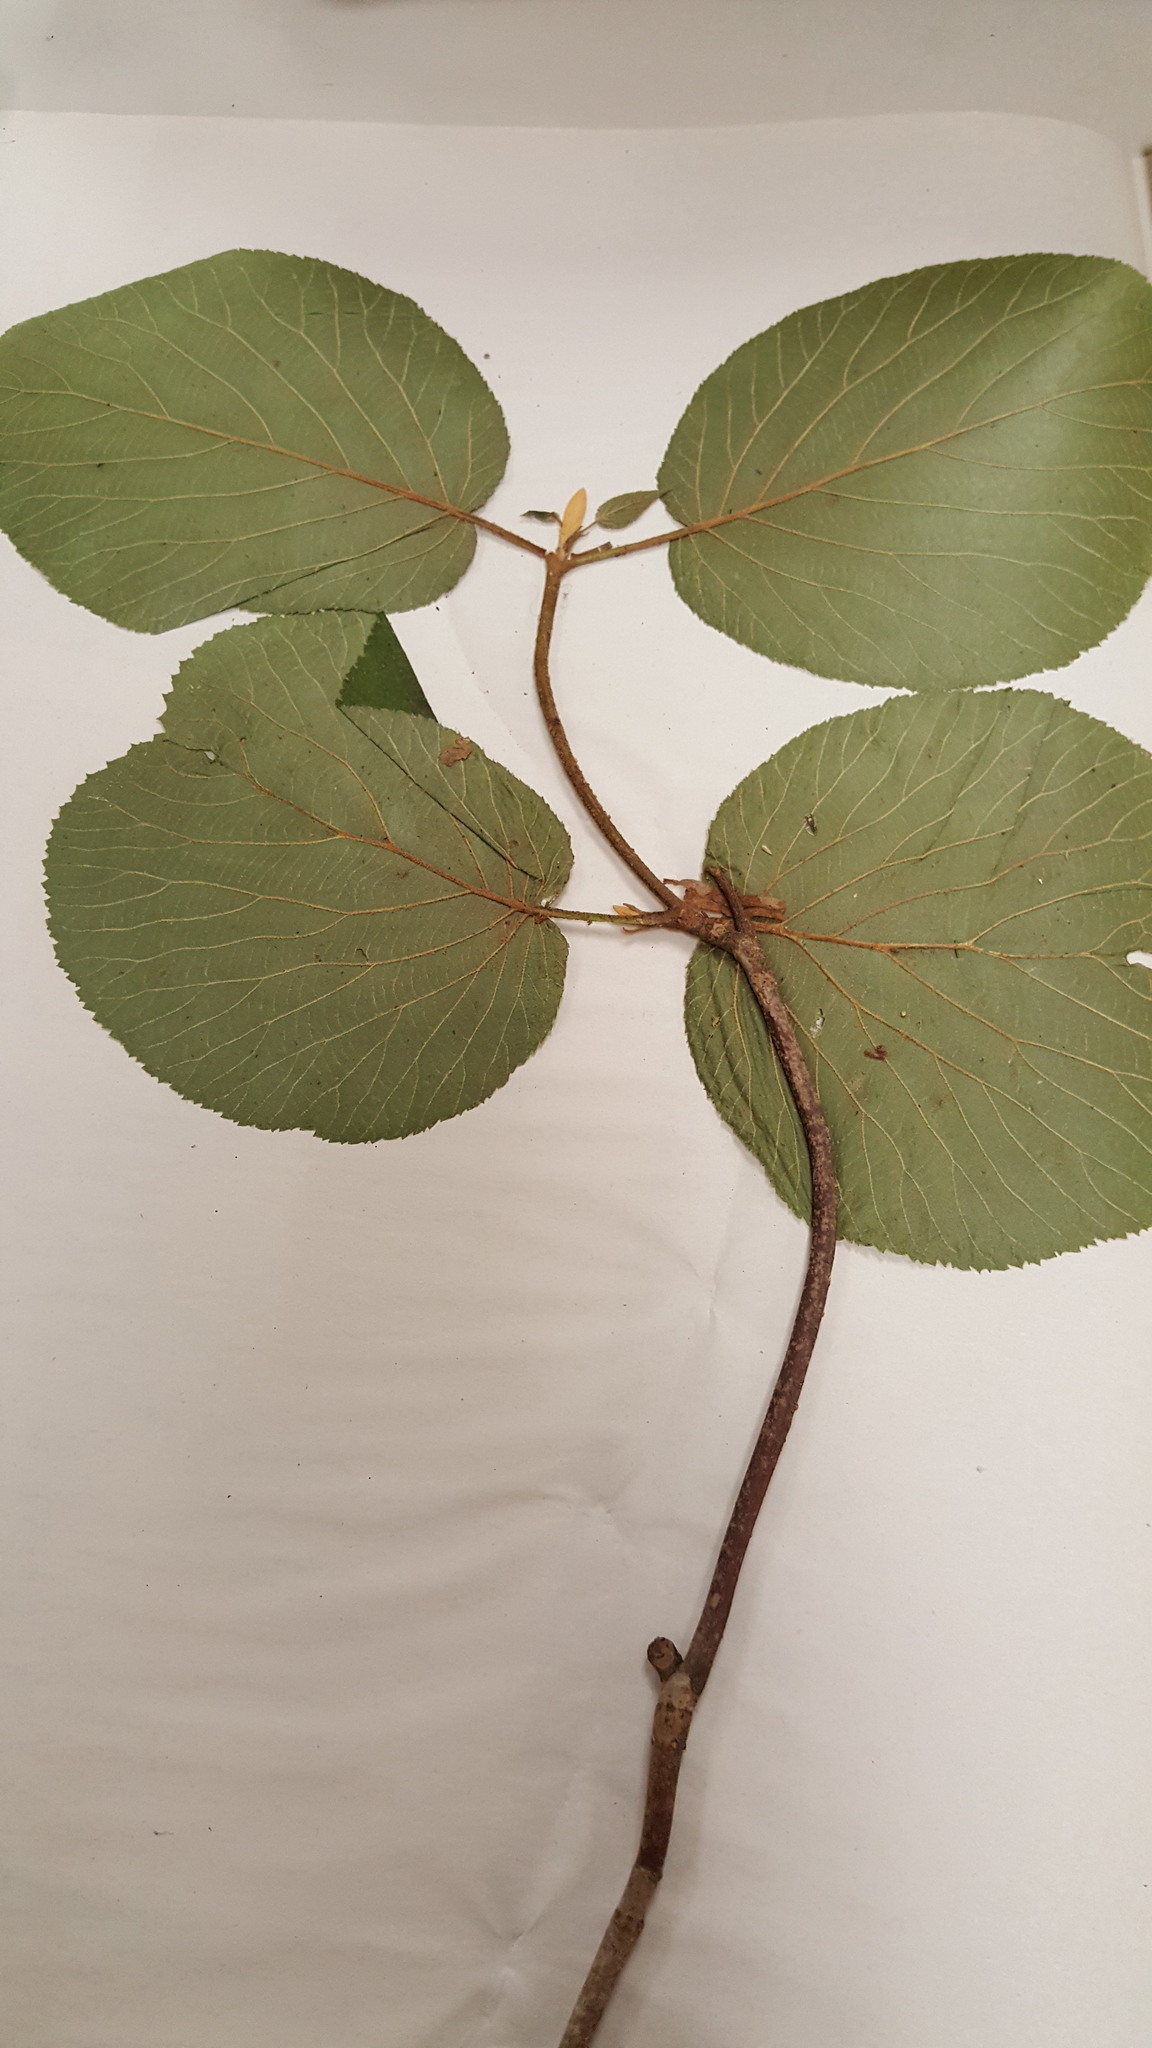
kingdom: Plantae
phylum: Tracheophyta
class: Magnoliopsida
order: Dipsacales
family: Viburnaceae
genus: Viburnum
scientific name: Viburnum lantanoides
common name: Hobblebush
